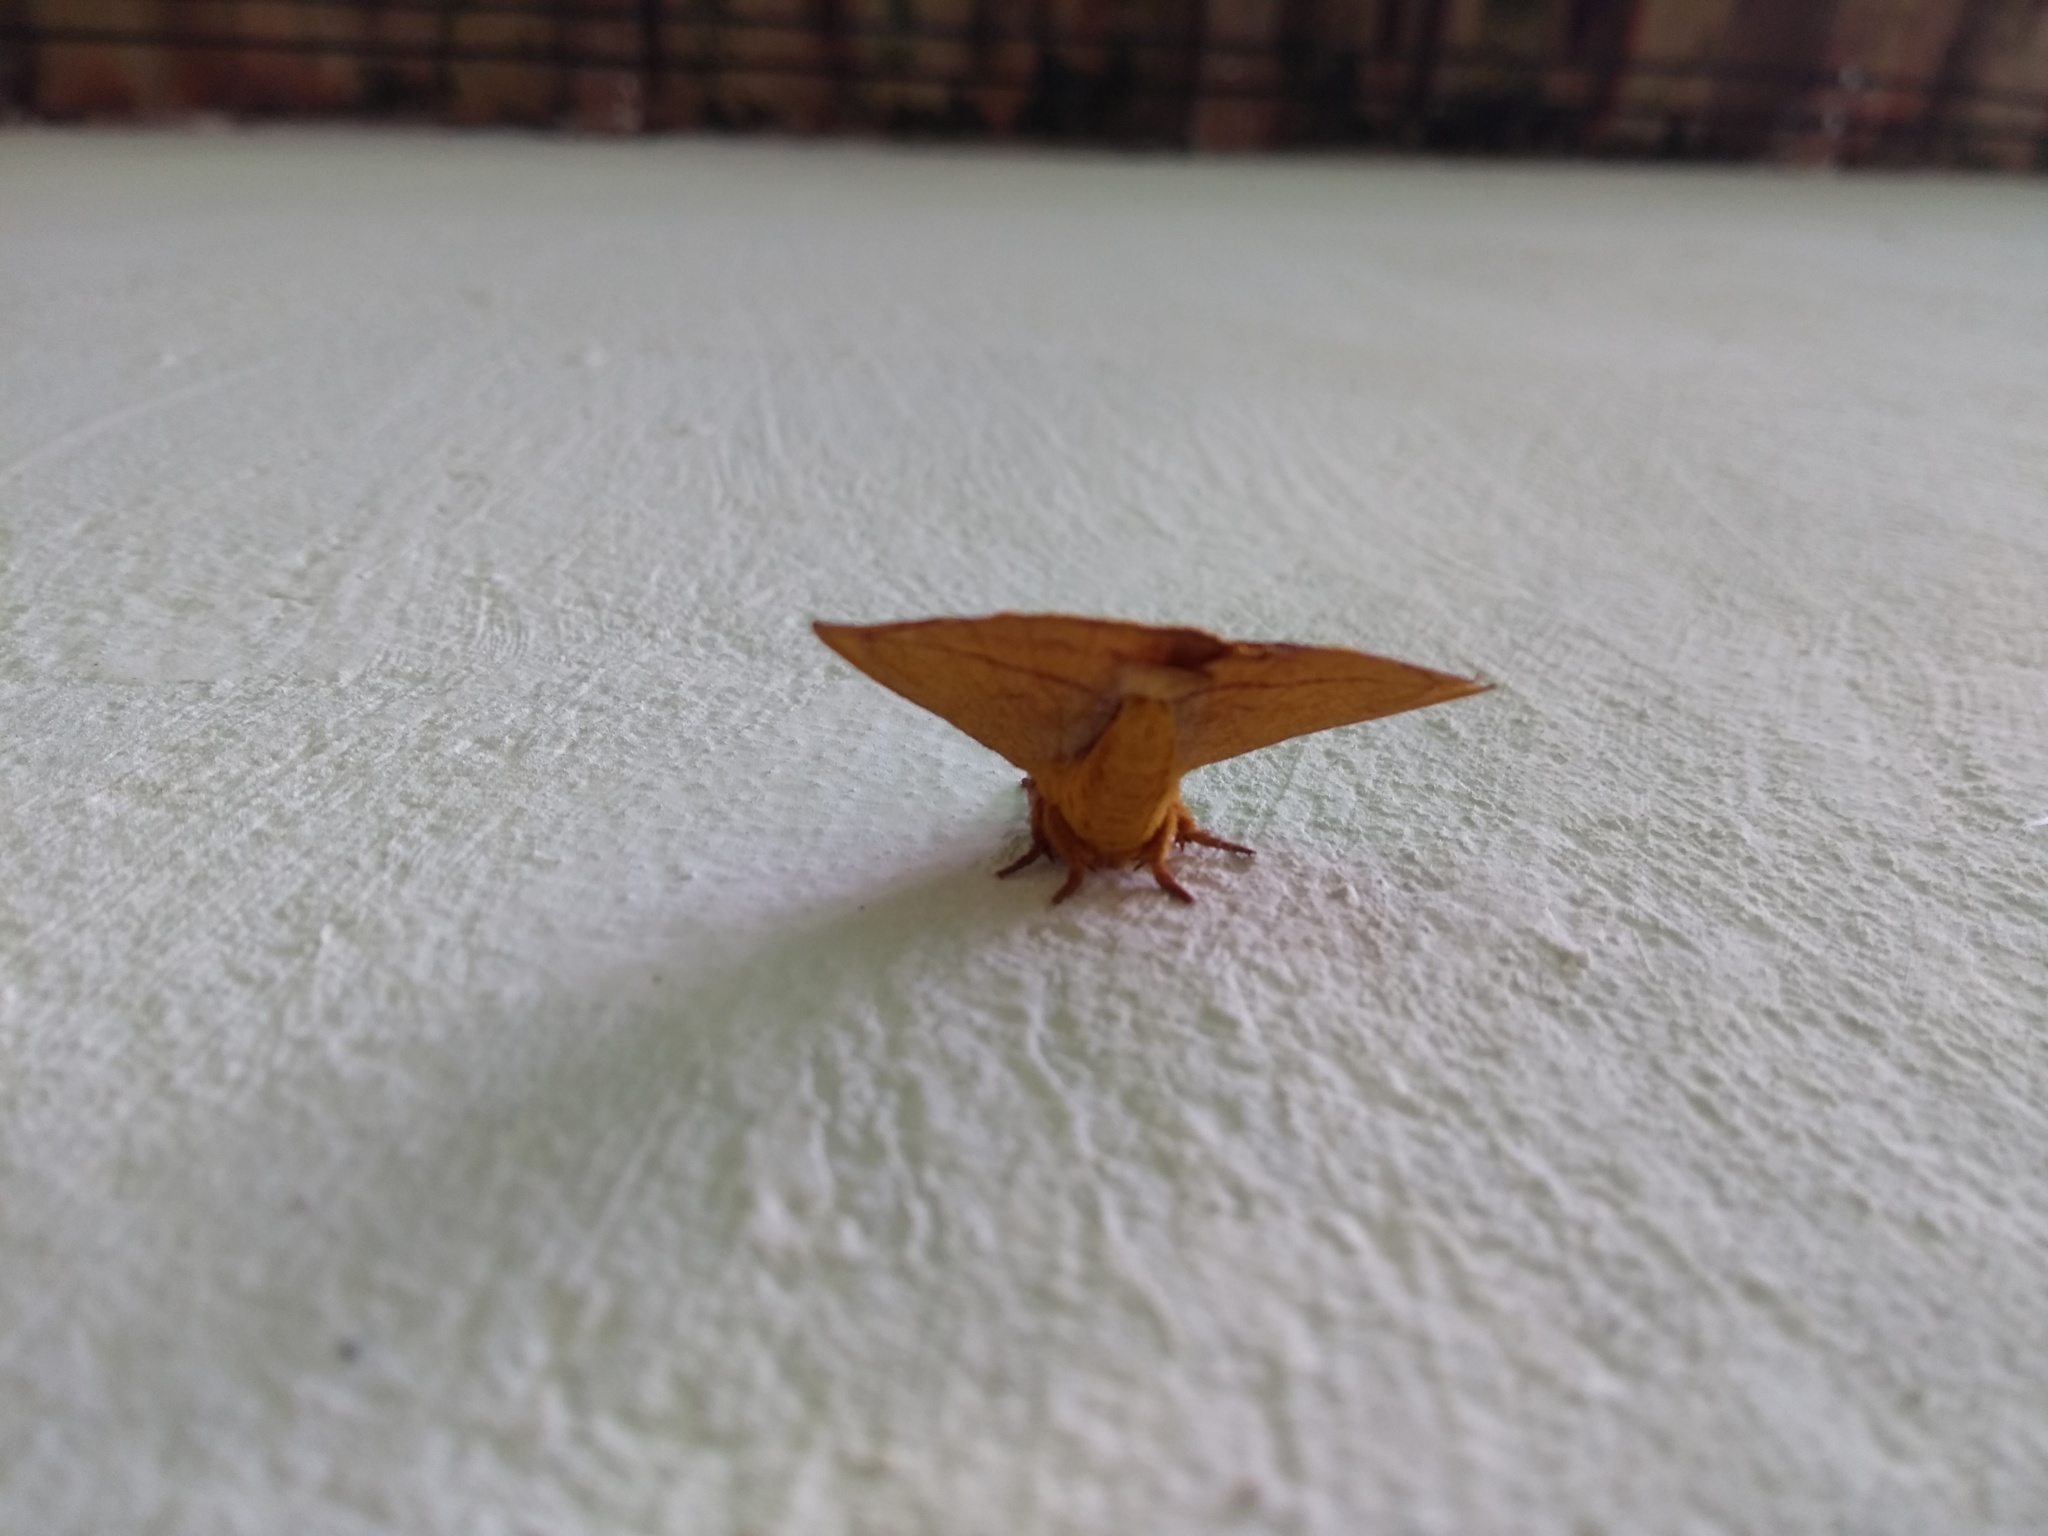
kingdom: Animalia
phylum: Arthropoda
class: Insecta
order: Lepidoptera
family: Saturniidae
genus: Catacantha
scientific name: Catacantha ferruginea
